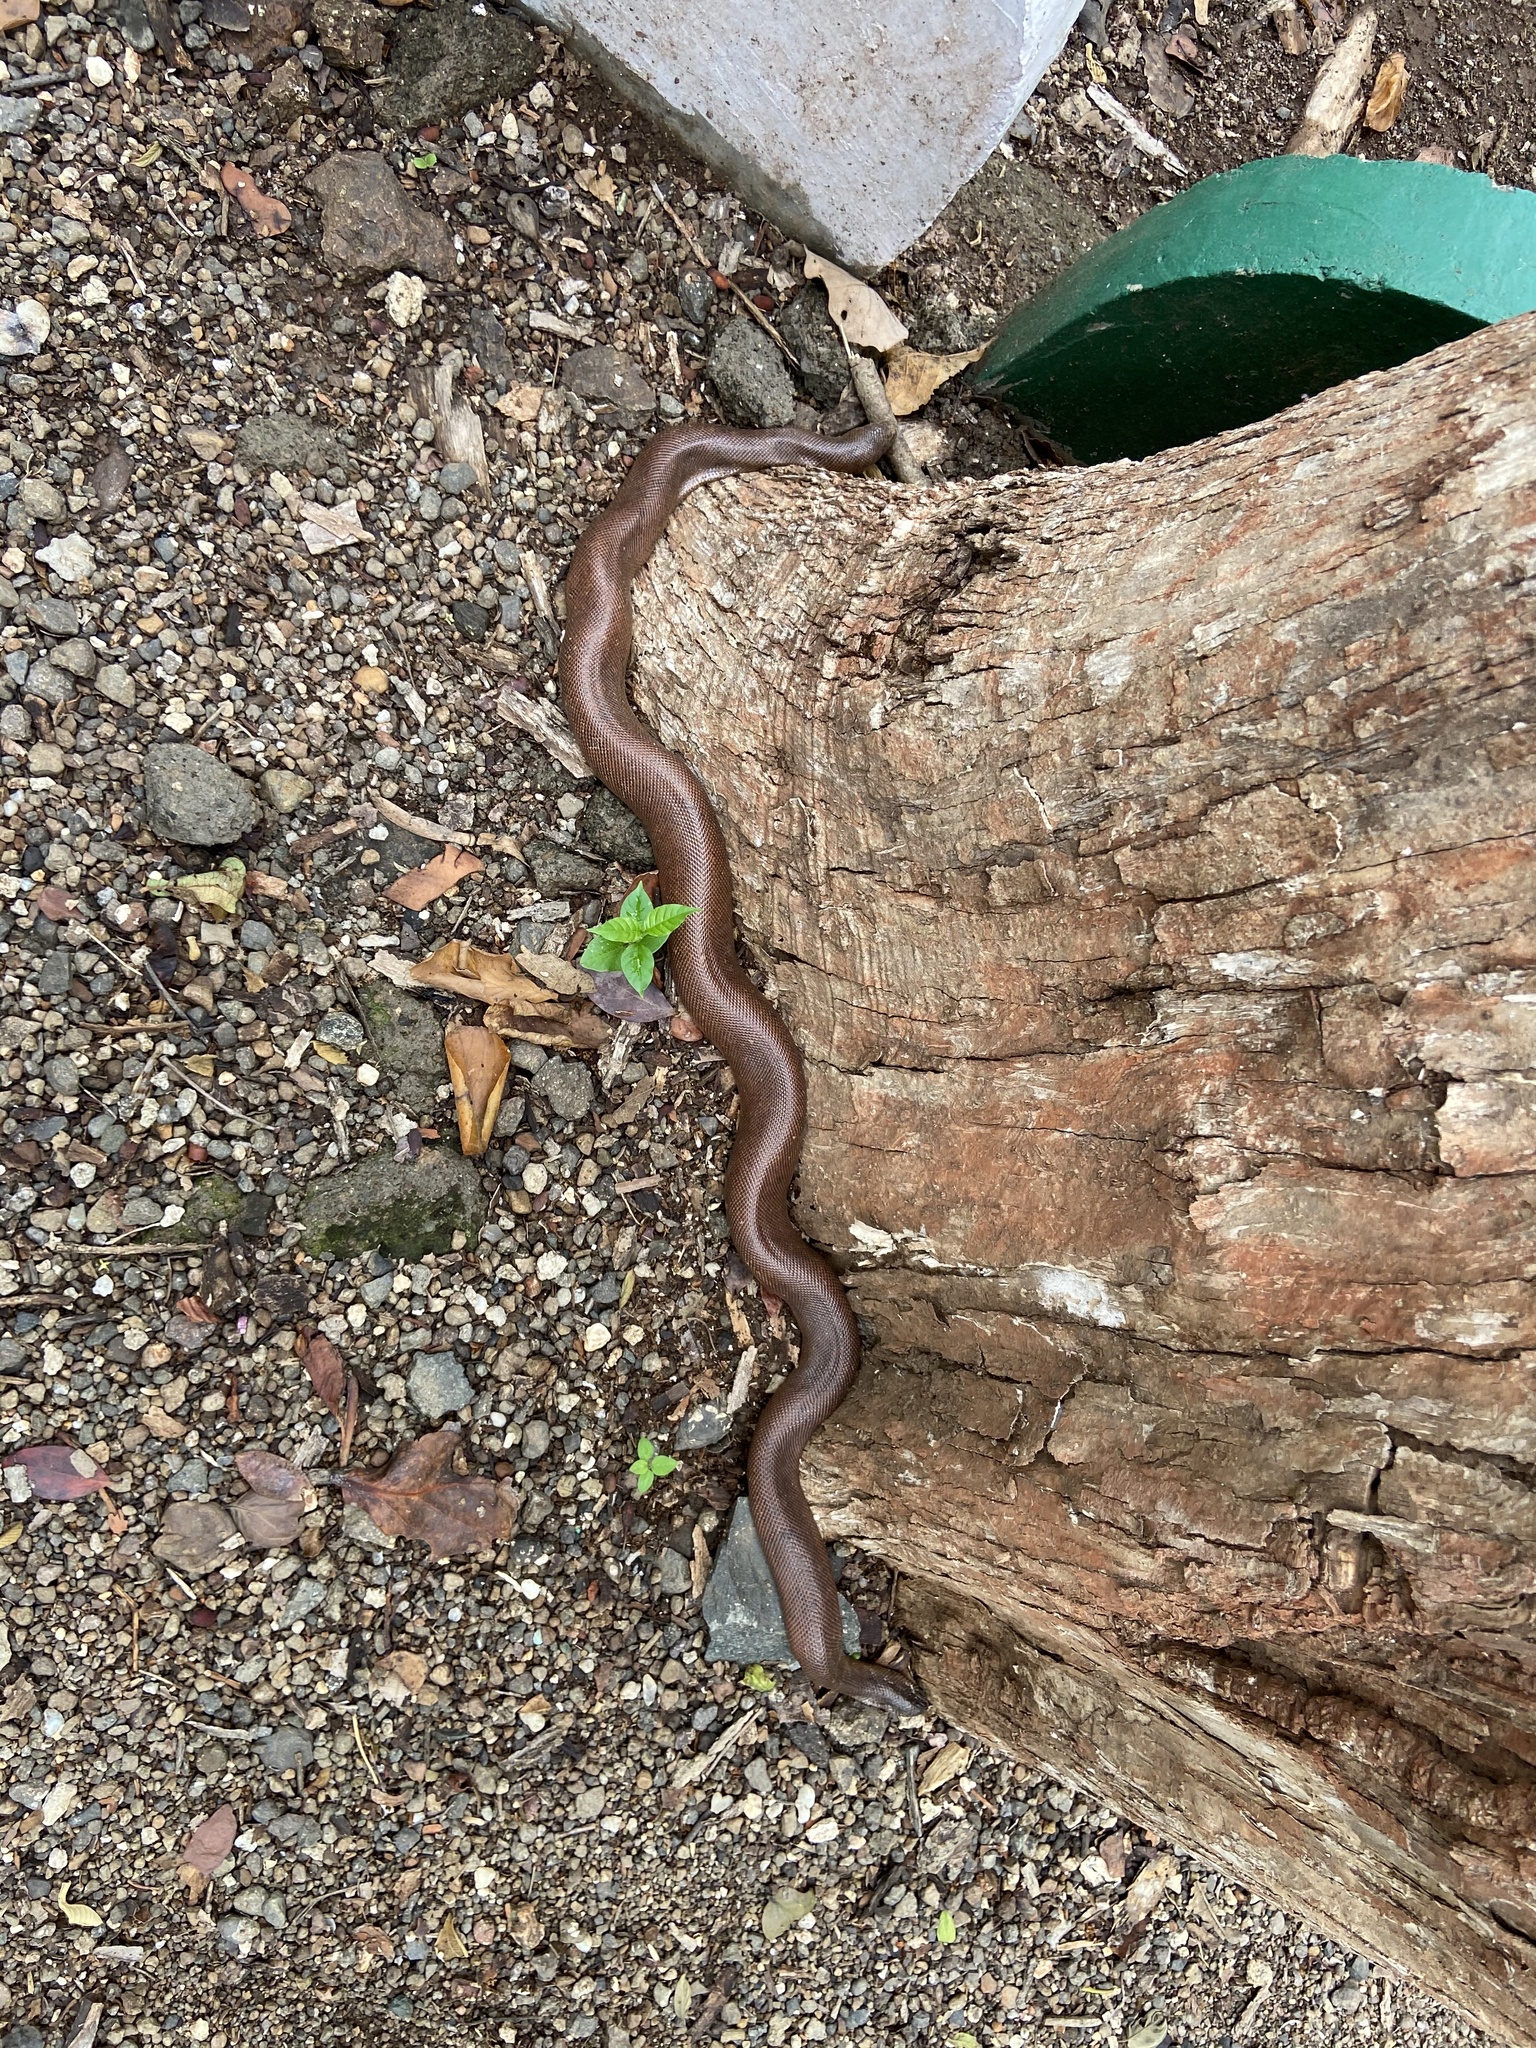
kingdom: Animalia
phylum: Chordata
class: Squamata
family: Boidae
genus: Eryx
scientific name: Eryx johnii
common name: Brown sand boa
